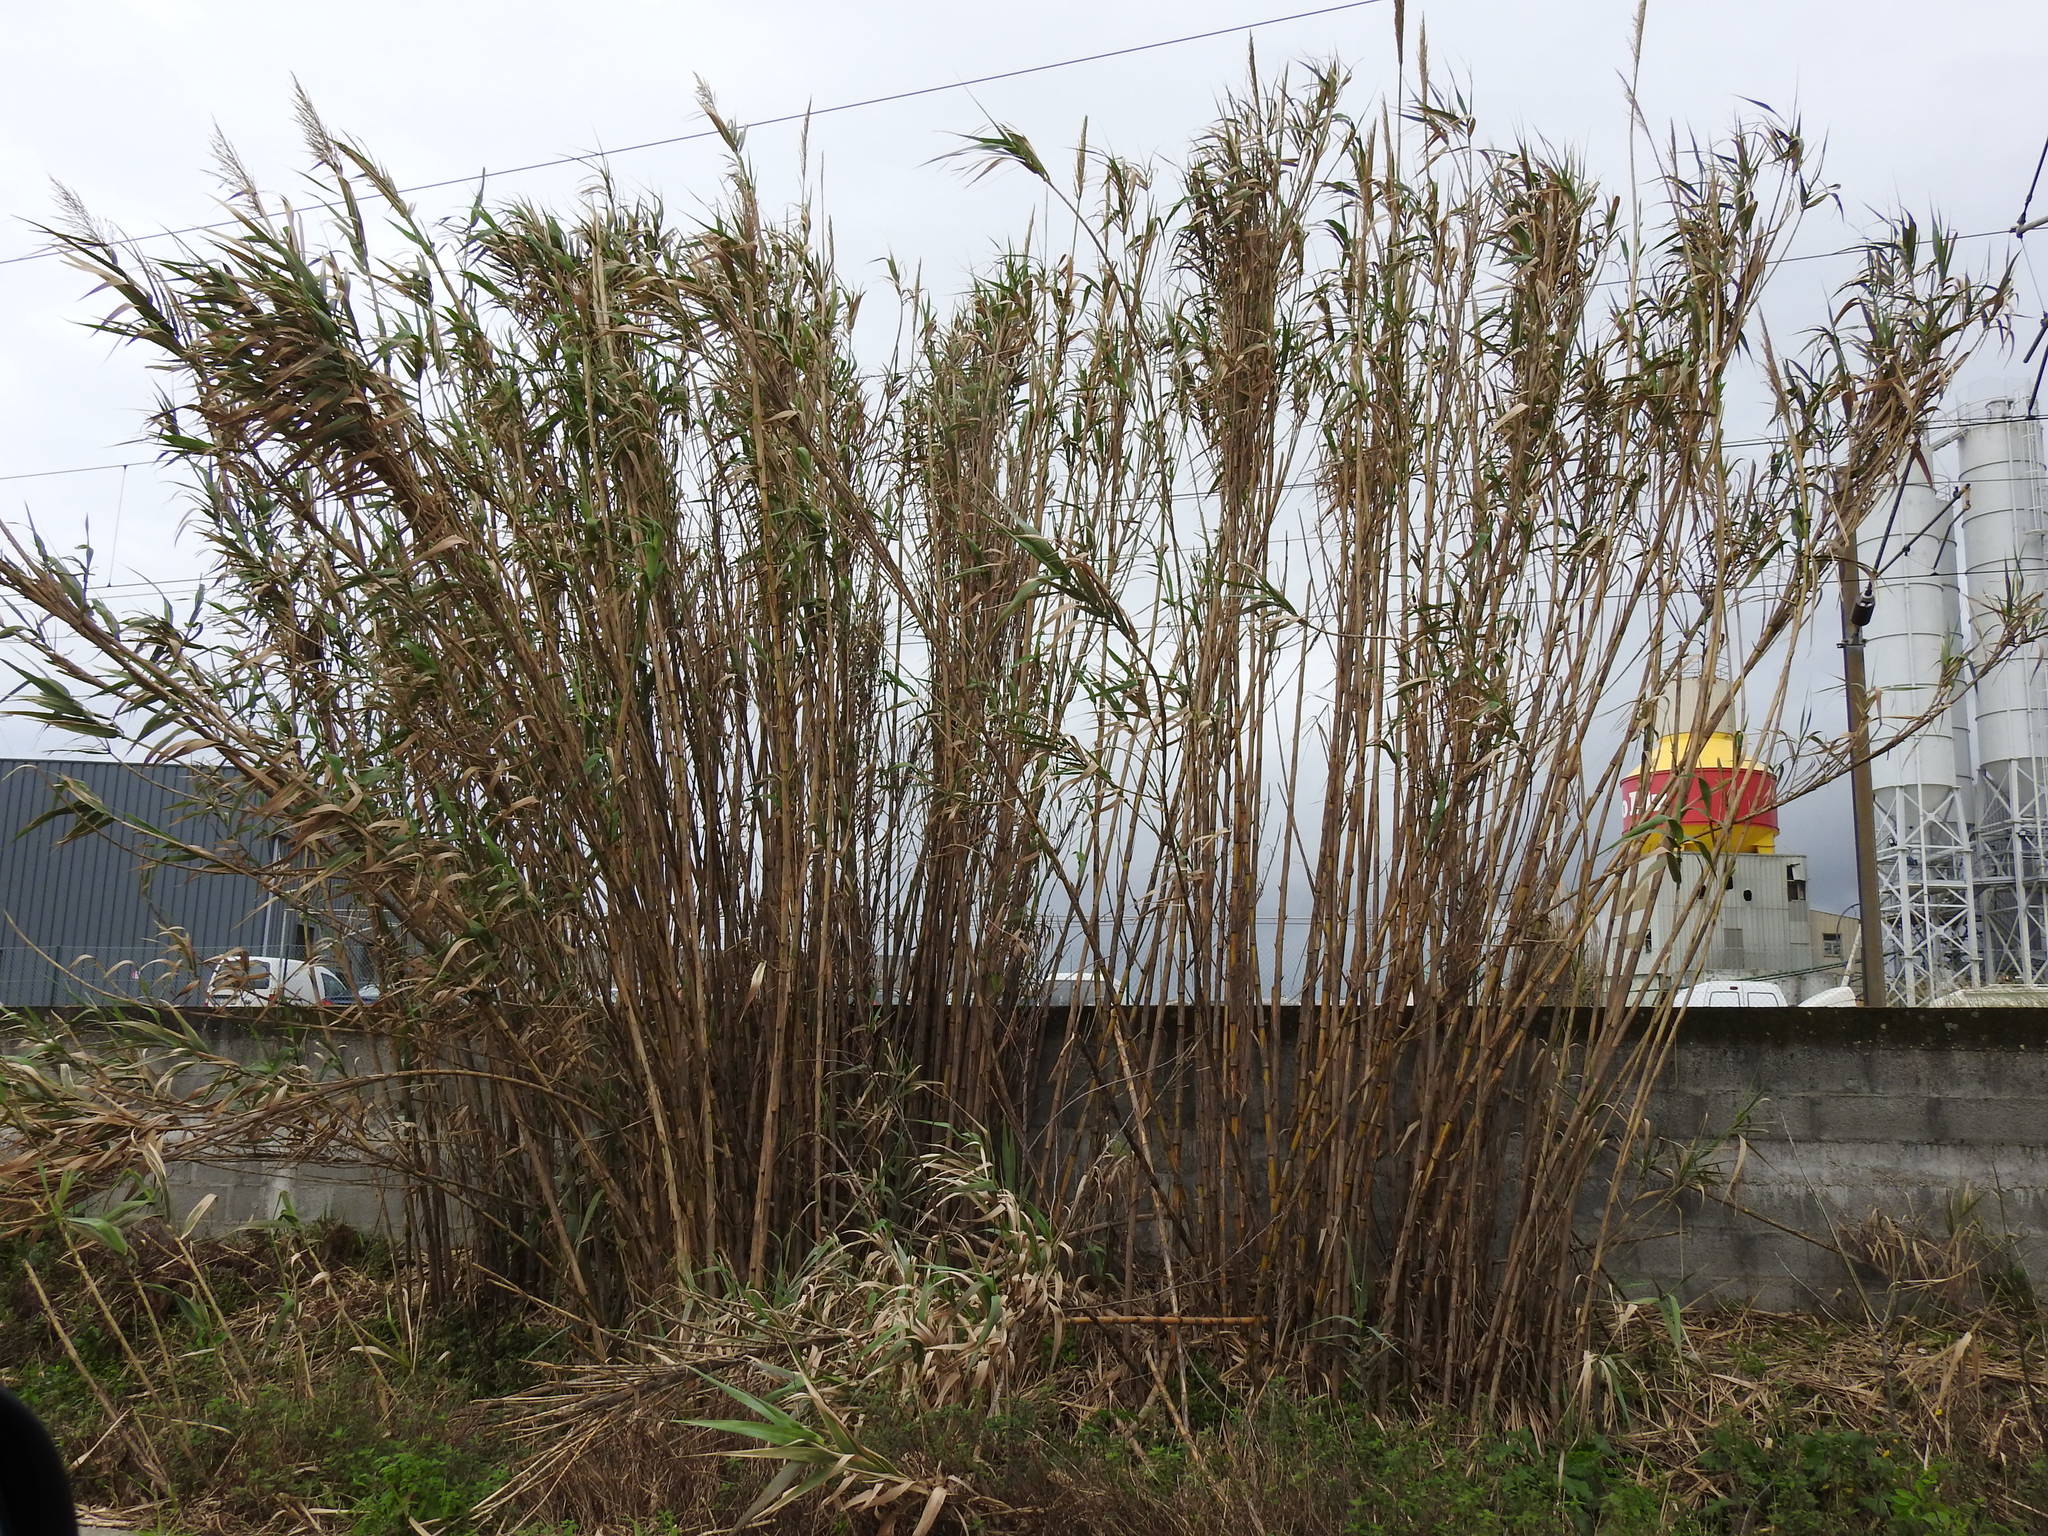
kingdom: Plantae
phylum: Tracheophyta
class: Liliopsida
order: Poales
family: Poaceae
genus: Arundo
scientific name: Arundo donax
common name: Giant reed
